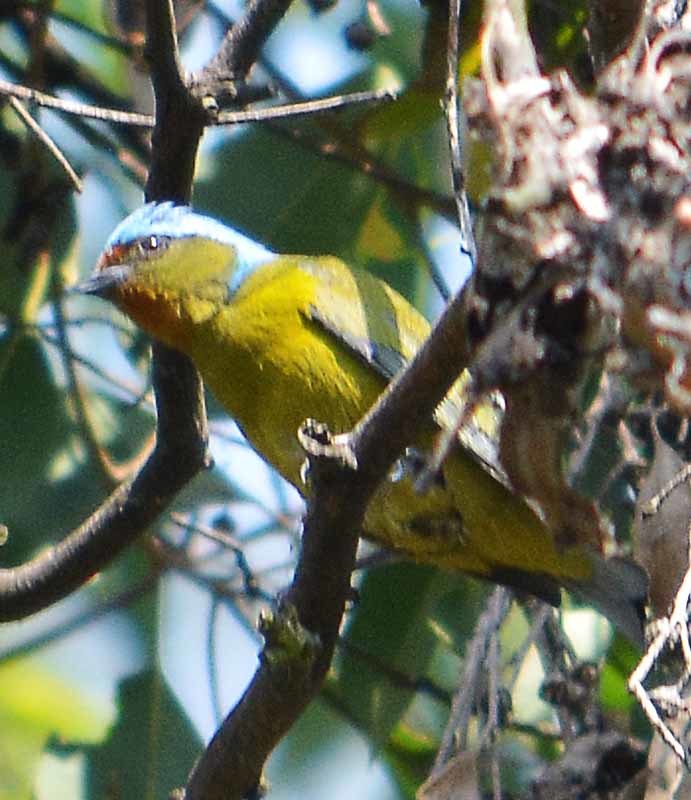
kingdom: Animalia
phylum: Chordata
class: Aves
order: Passeriformes
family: Fringillidae
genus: Euphonia
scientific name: Euphonia elegantissima
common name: Elegant euphonia
